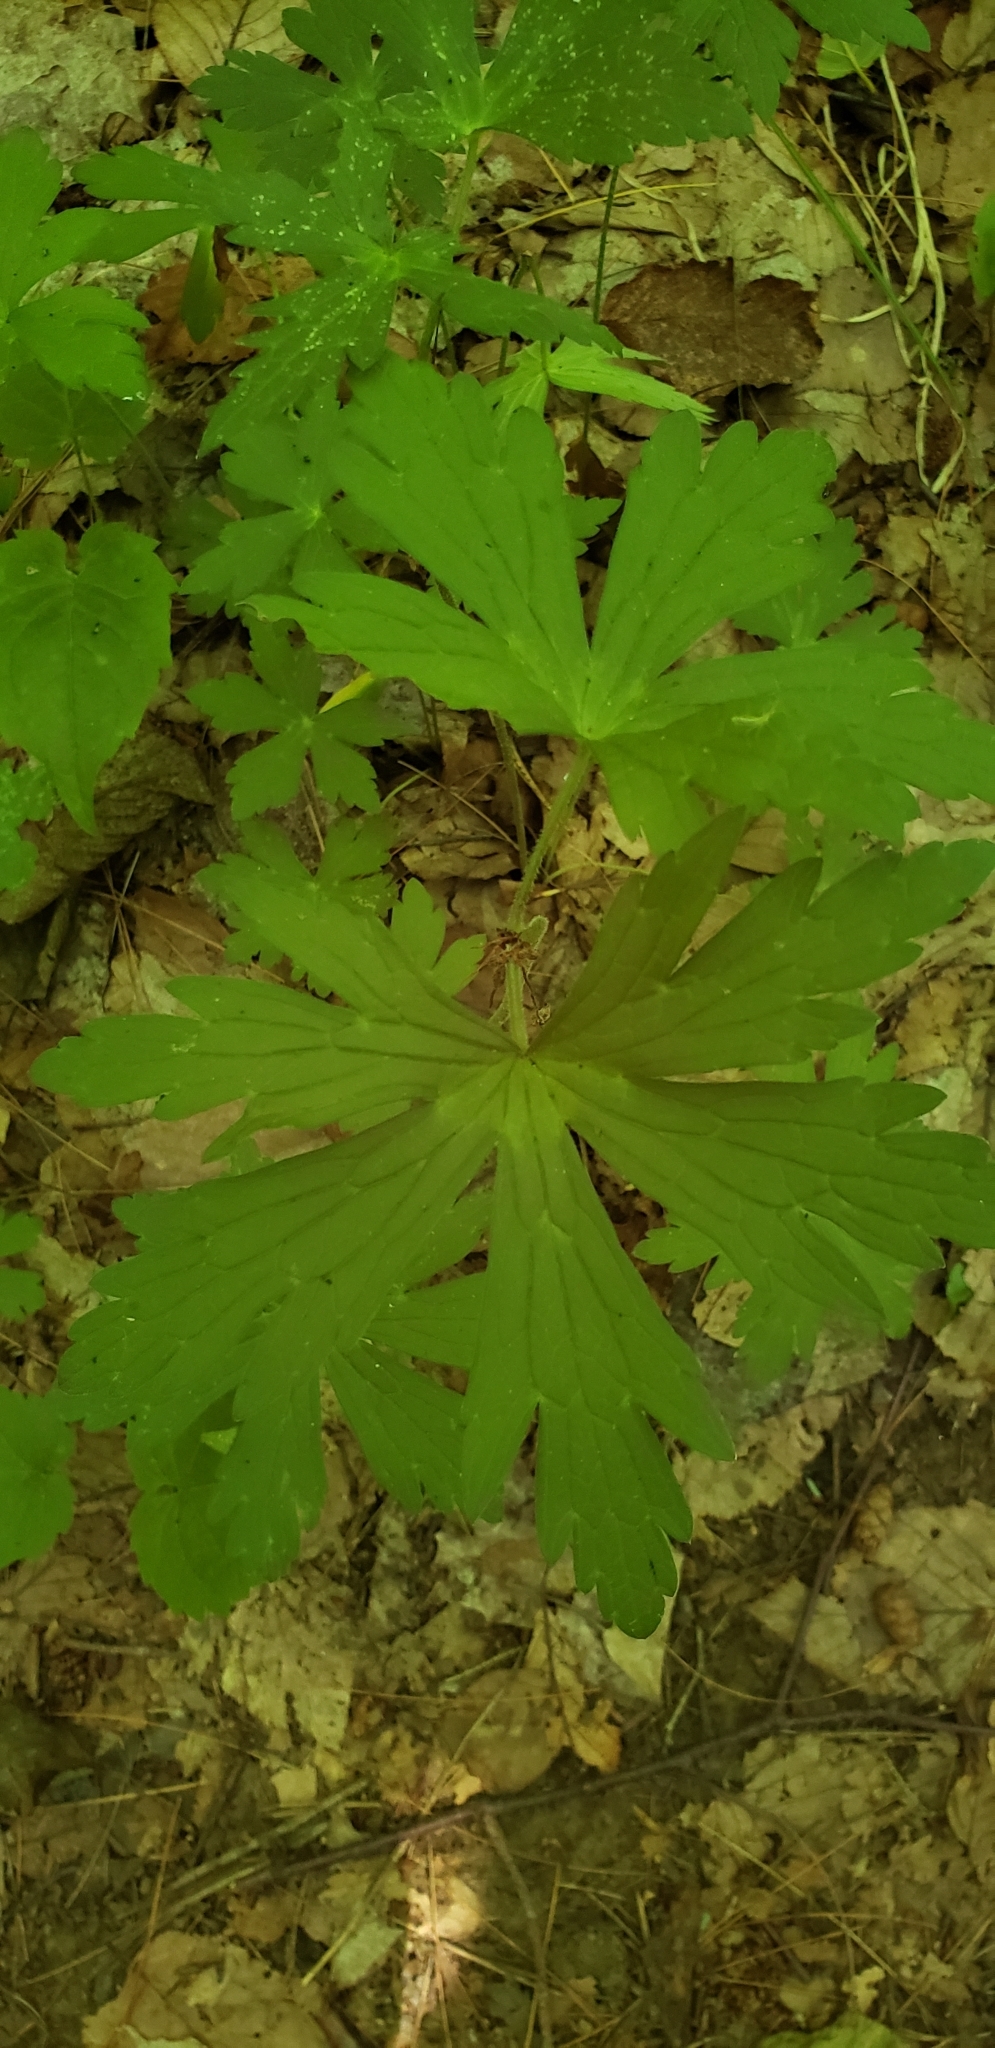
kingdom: Plantae
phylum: Tracheophyta
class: Magnoliopsida
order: Geraniales
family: Geraniaceae
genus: Geranium
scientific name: Geranium maculatum
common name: Spotted geranium
